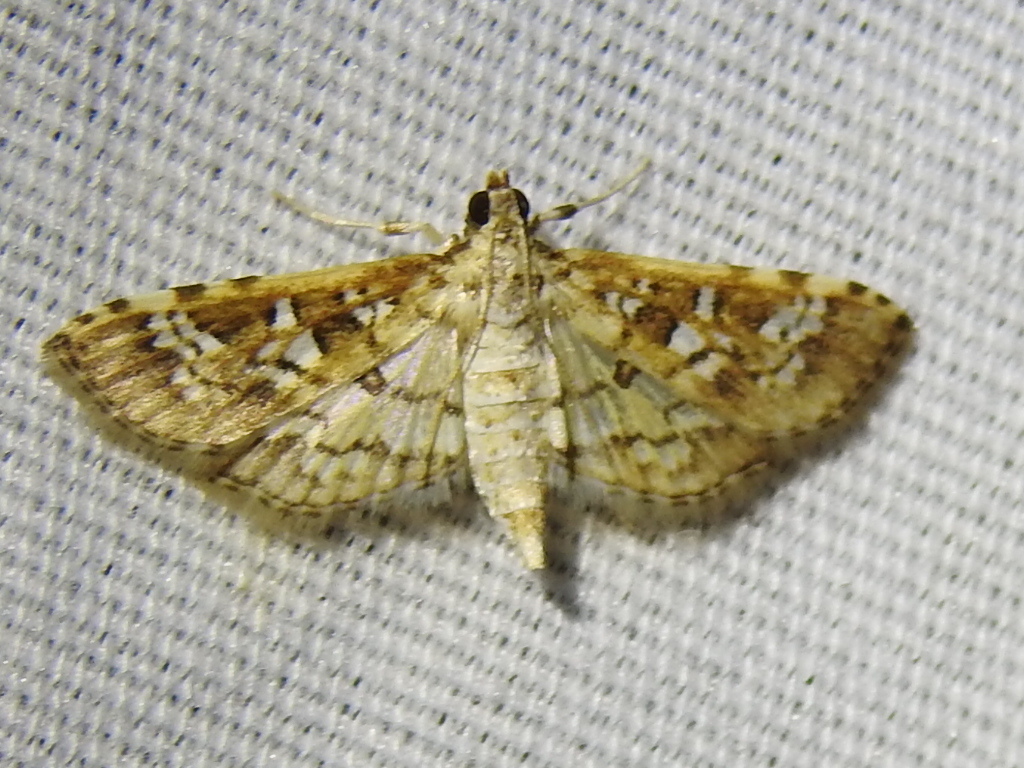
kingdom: Animalia
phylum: Arthropoda
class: Insecta
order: Lepidoptera
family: Crambidae
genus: Samea
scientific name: Samea multiplicalis
